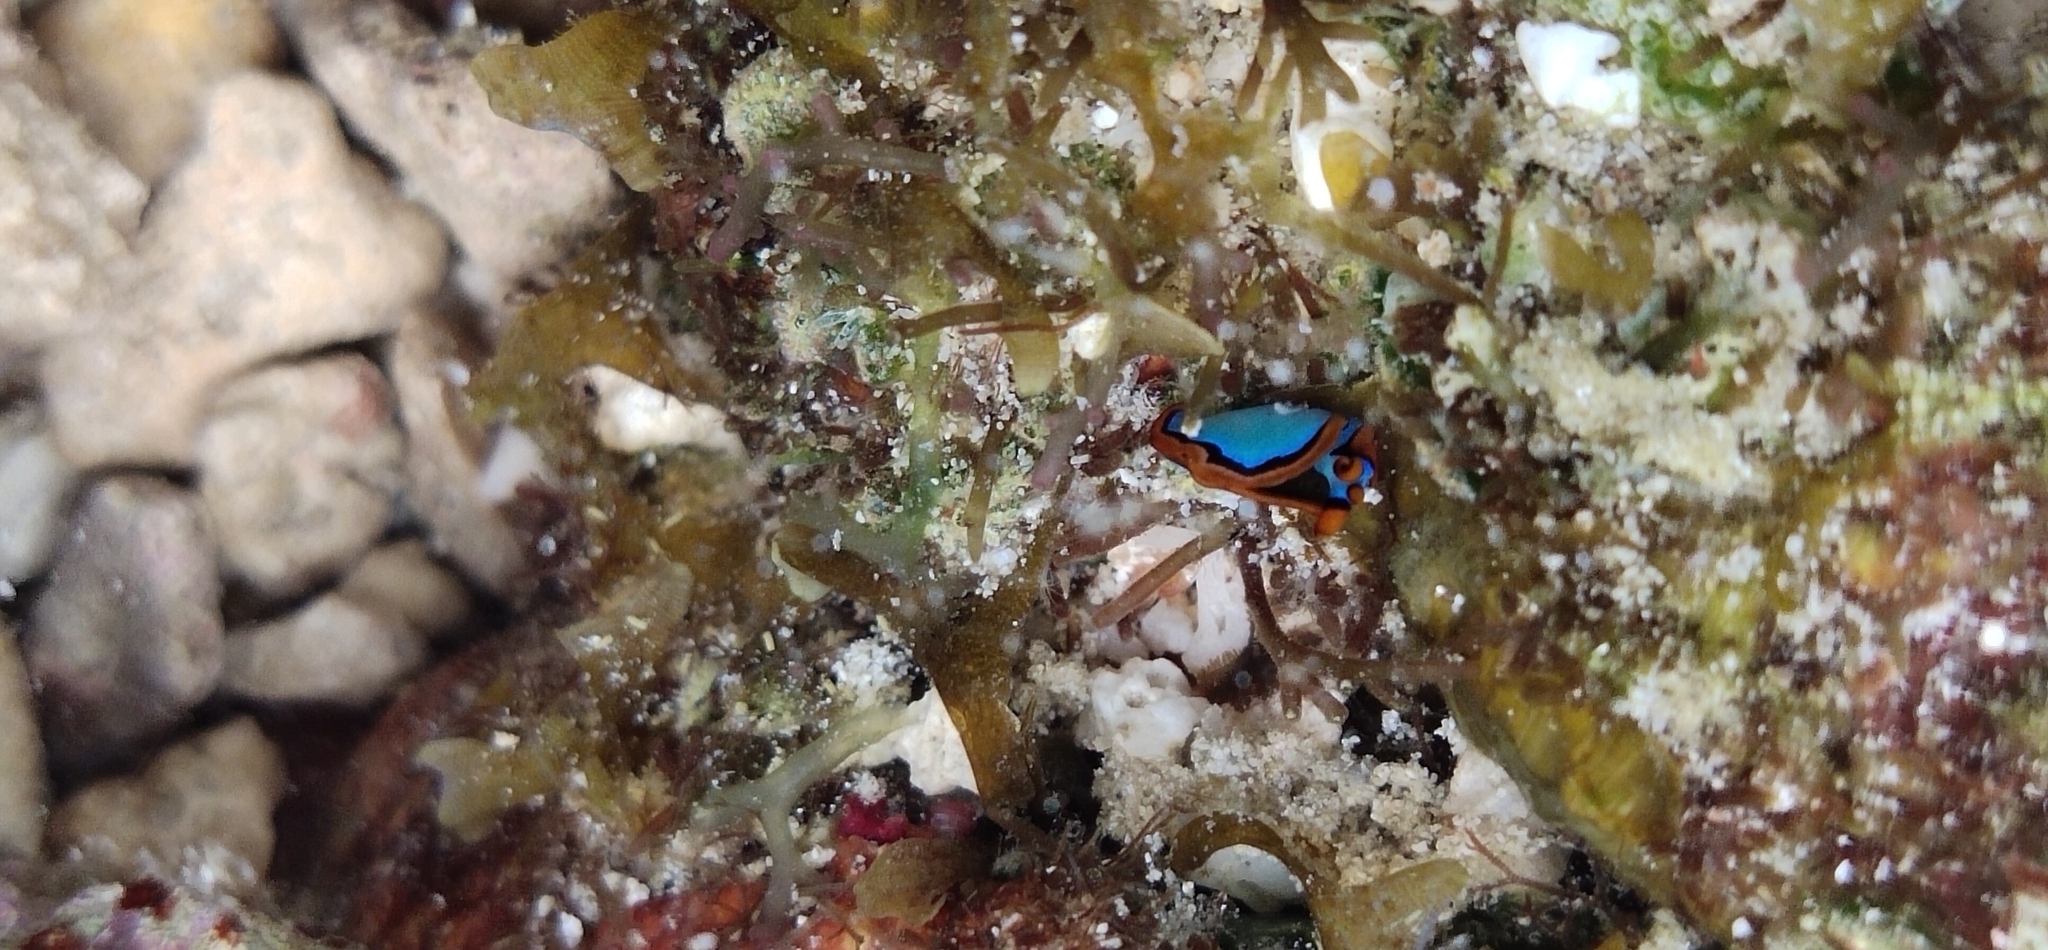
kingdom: Animalia
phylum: Mollusca
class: Gastropoda
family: Plakobranchidae
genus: Thuridilla
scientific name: Thuridilla lineolata
